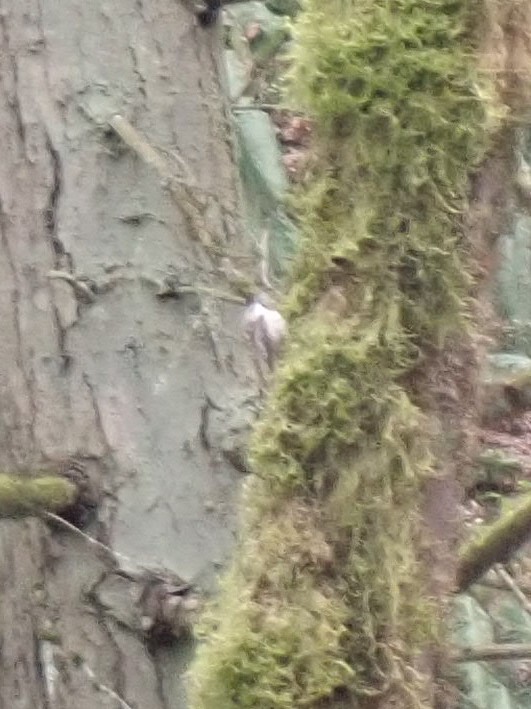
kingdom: Animalia
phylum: Chordata
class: Aves
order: Passeriformes
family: Certhiidae
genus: Certhia
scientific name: Certhia americana
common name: Brown creeper
